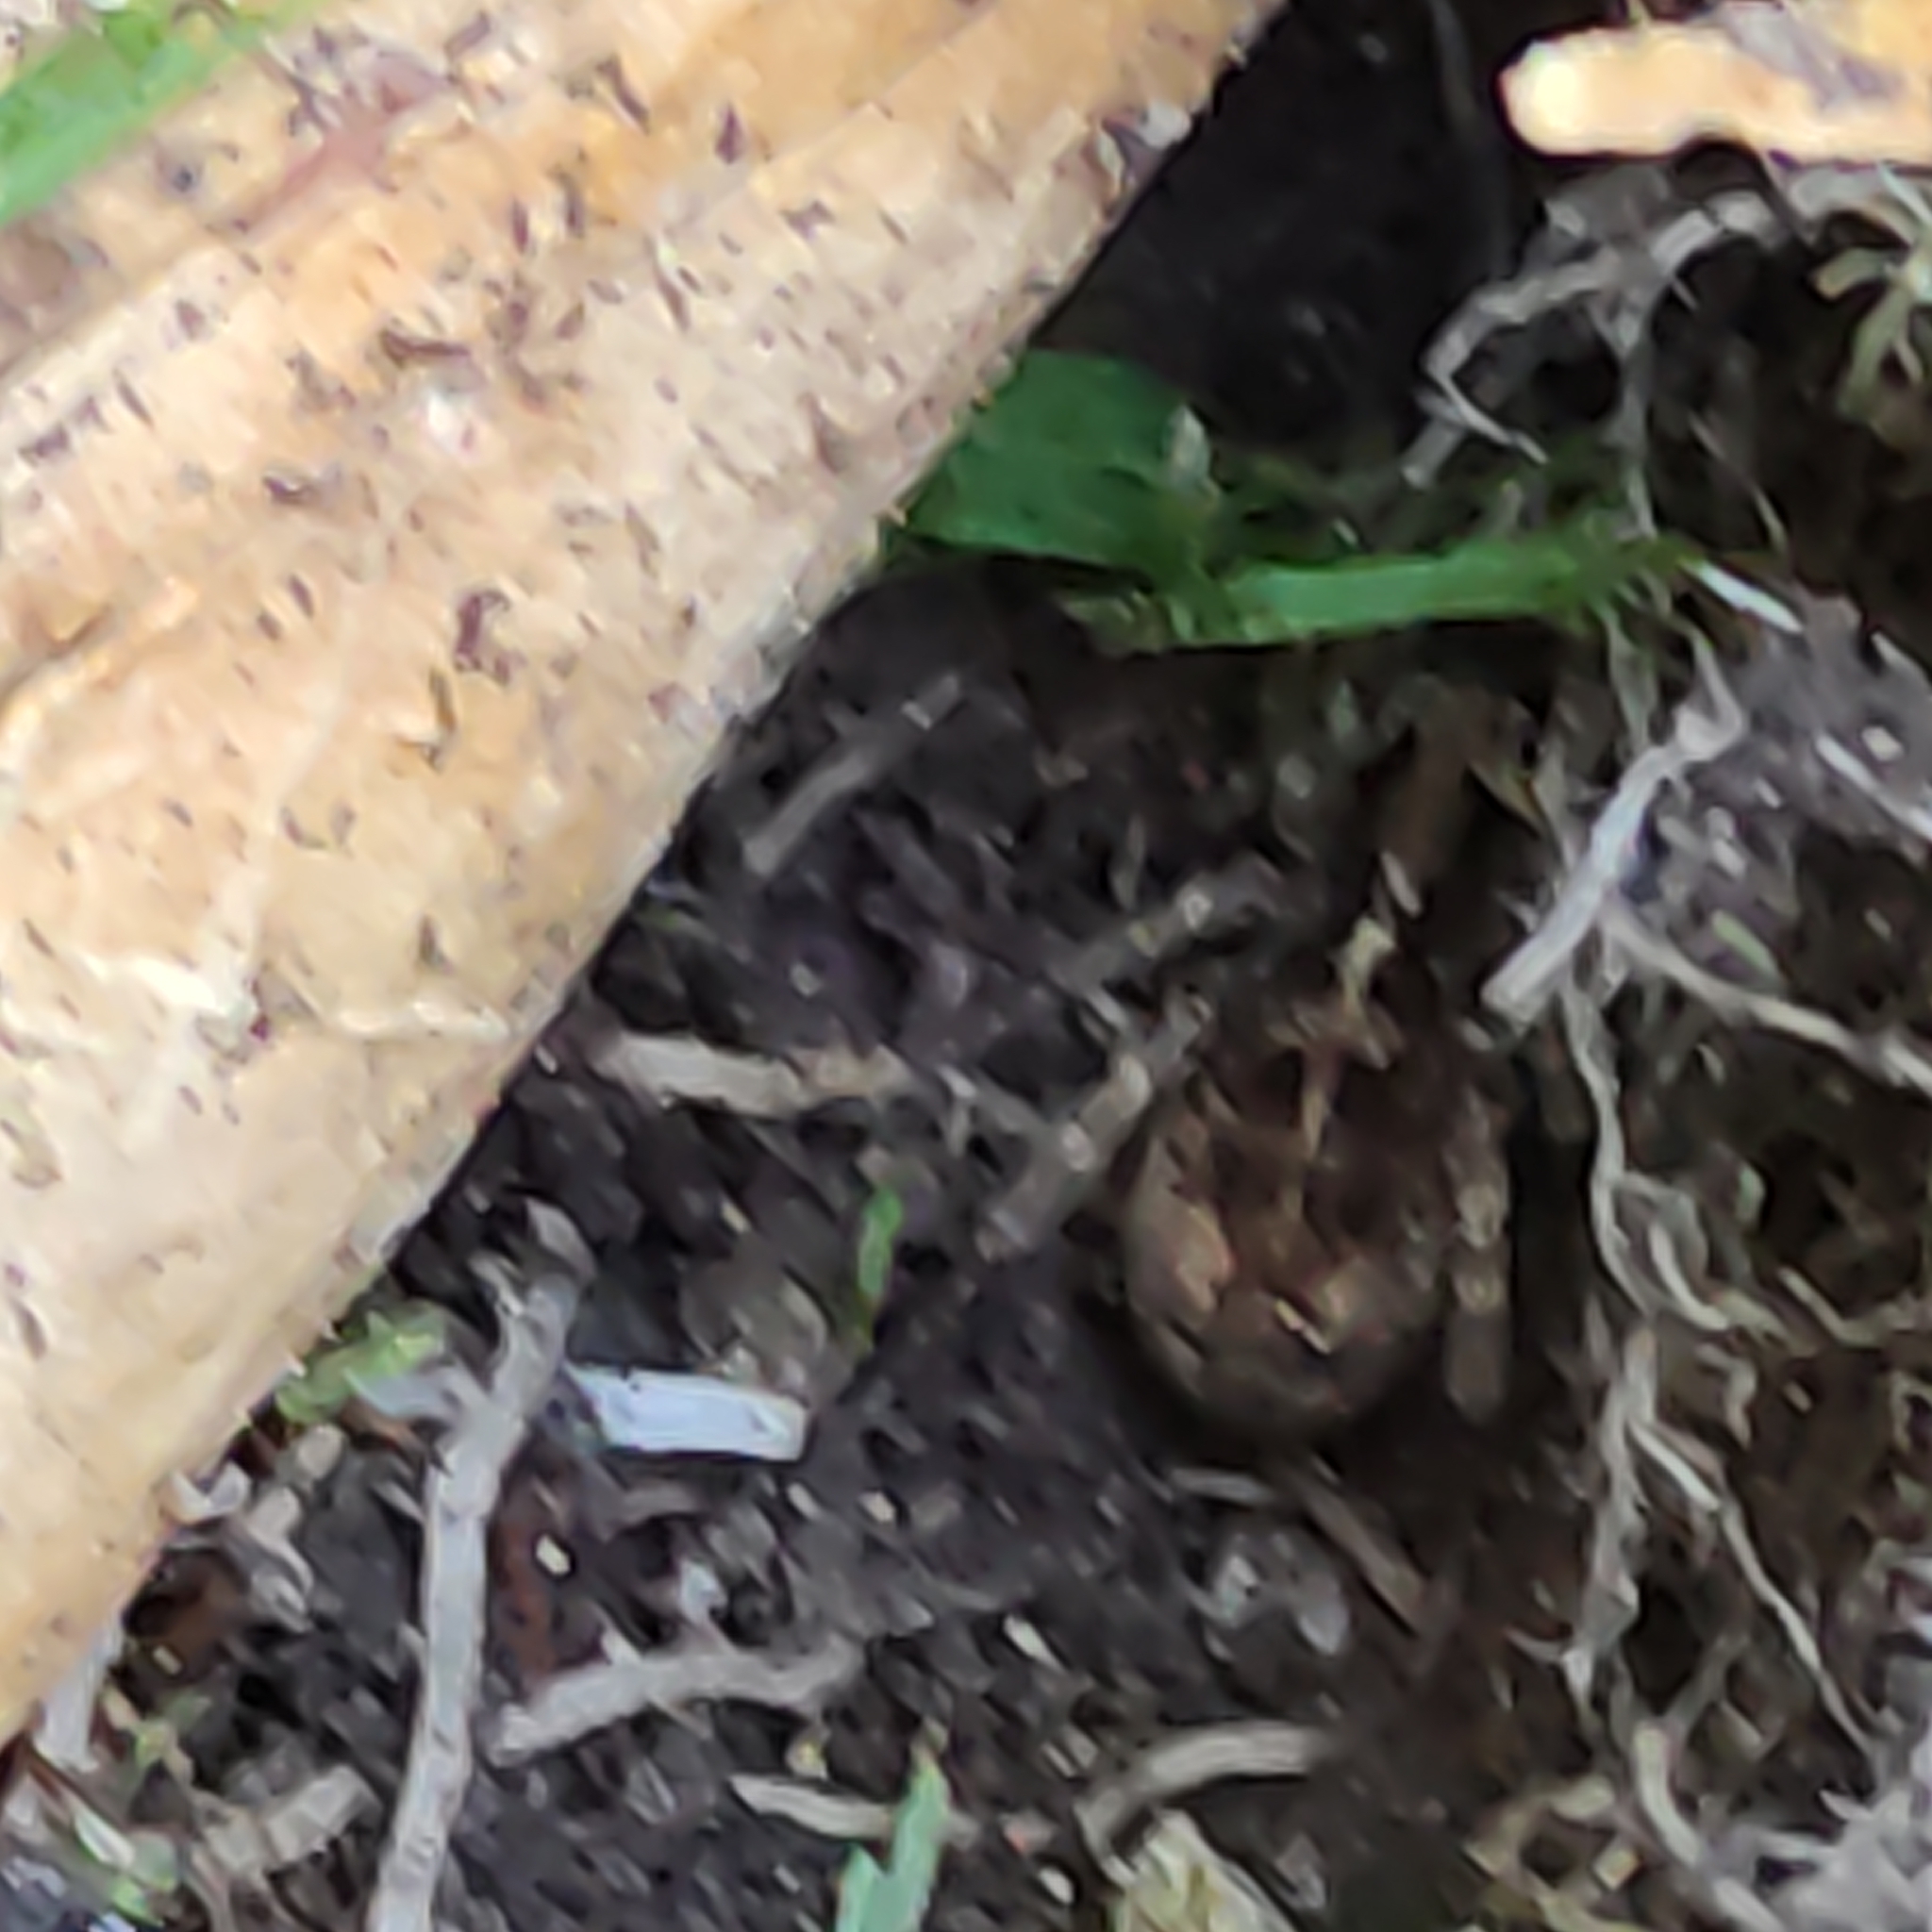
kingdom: Animalia
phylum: Arthropoda
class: Arachnida
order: Araneae
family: Lycosidae
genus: Anoteropsis
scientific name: Anoteropsis hilaris
